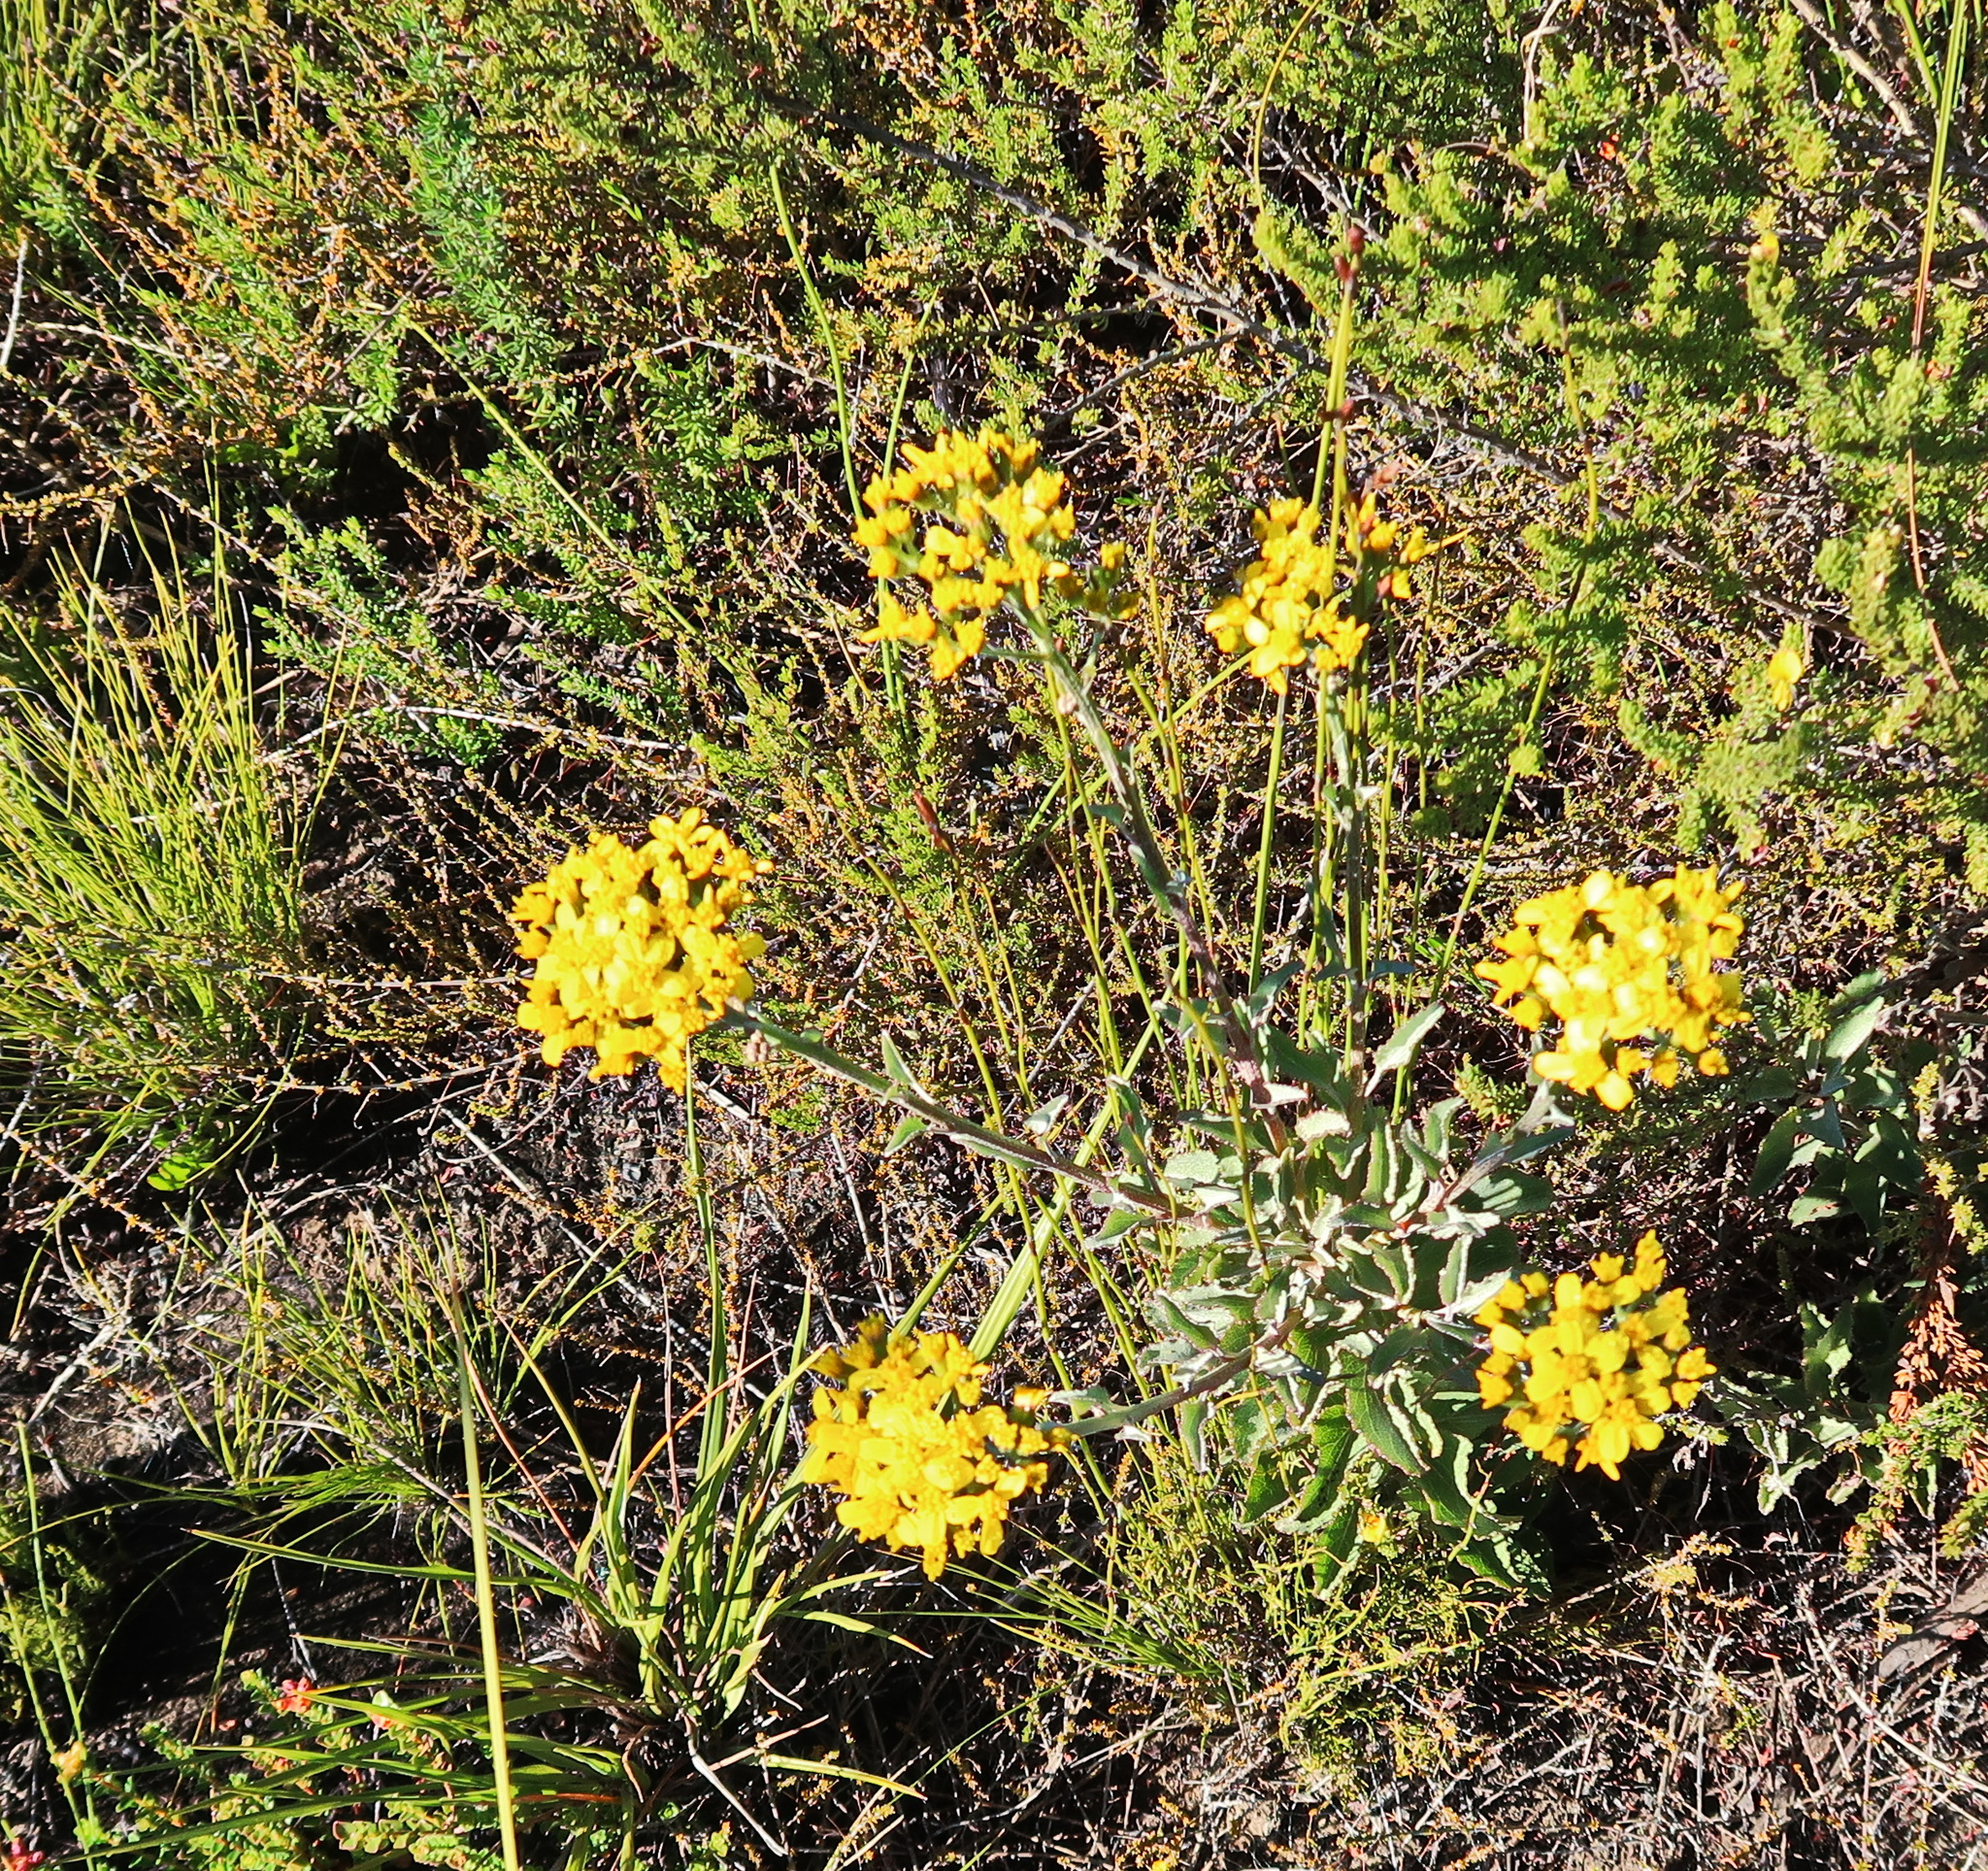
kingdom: Plantae
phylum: Tracheophyta
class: Magnoliopsida
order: Asterales
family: Asteraceae
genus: Senecio
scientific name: Senecio crenatus
